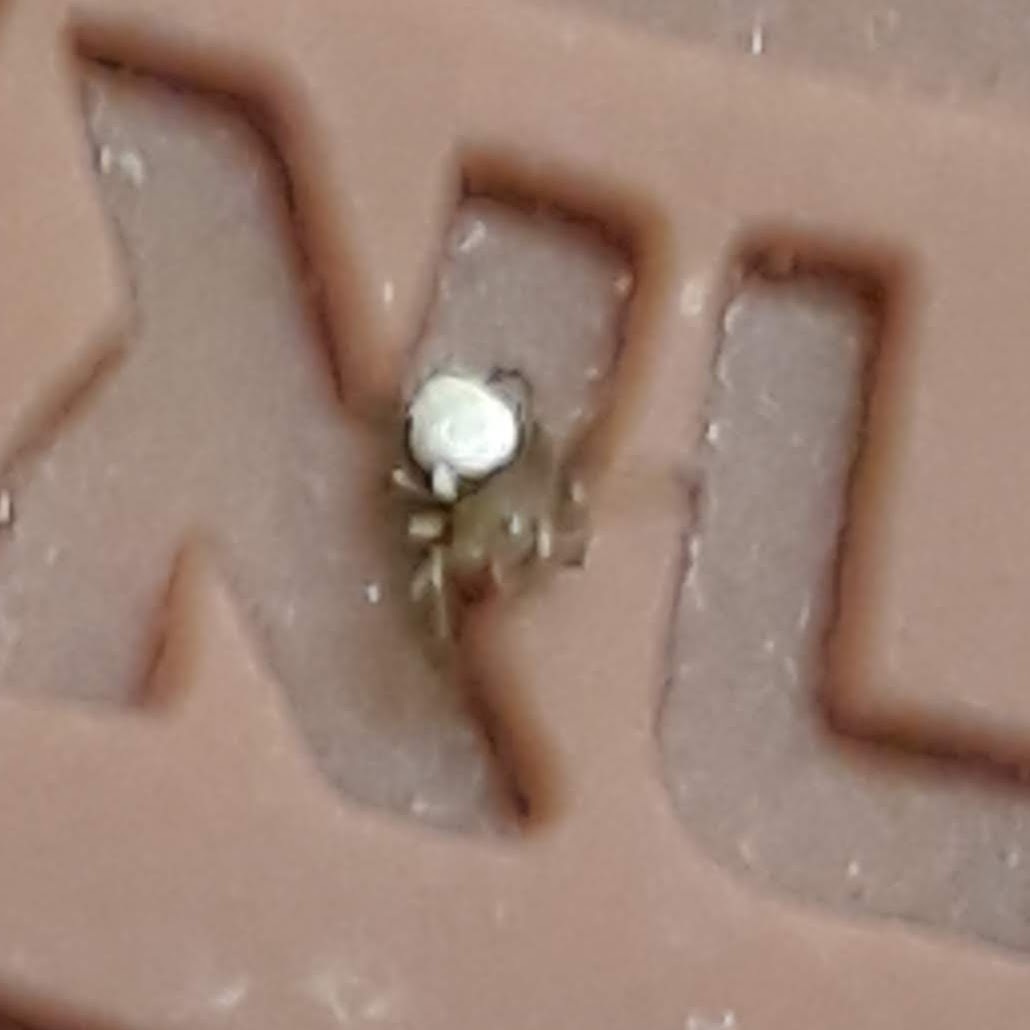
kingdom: Animalia
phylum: Arthropoda
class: Arachnida
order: Araneae
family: Araneidae
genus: Araniella
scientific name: Araniella displicata
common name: Sixspotted orb weaver
